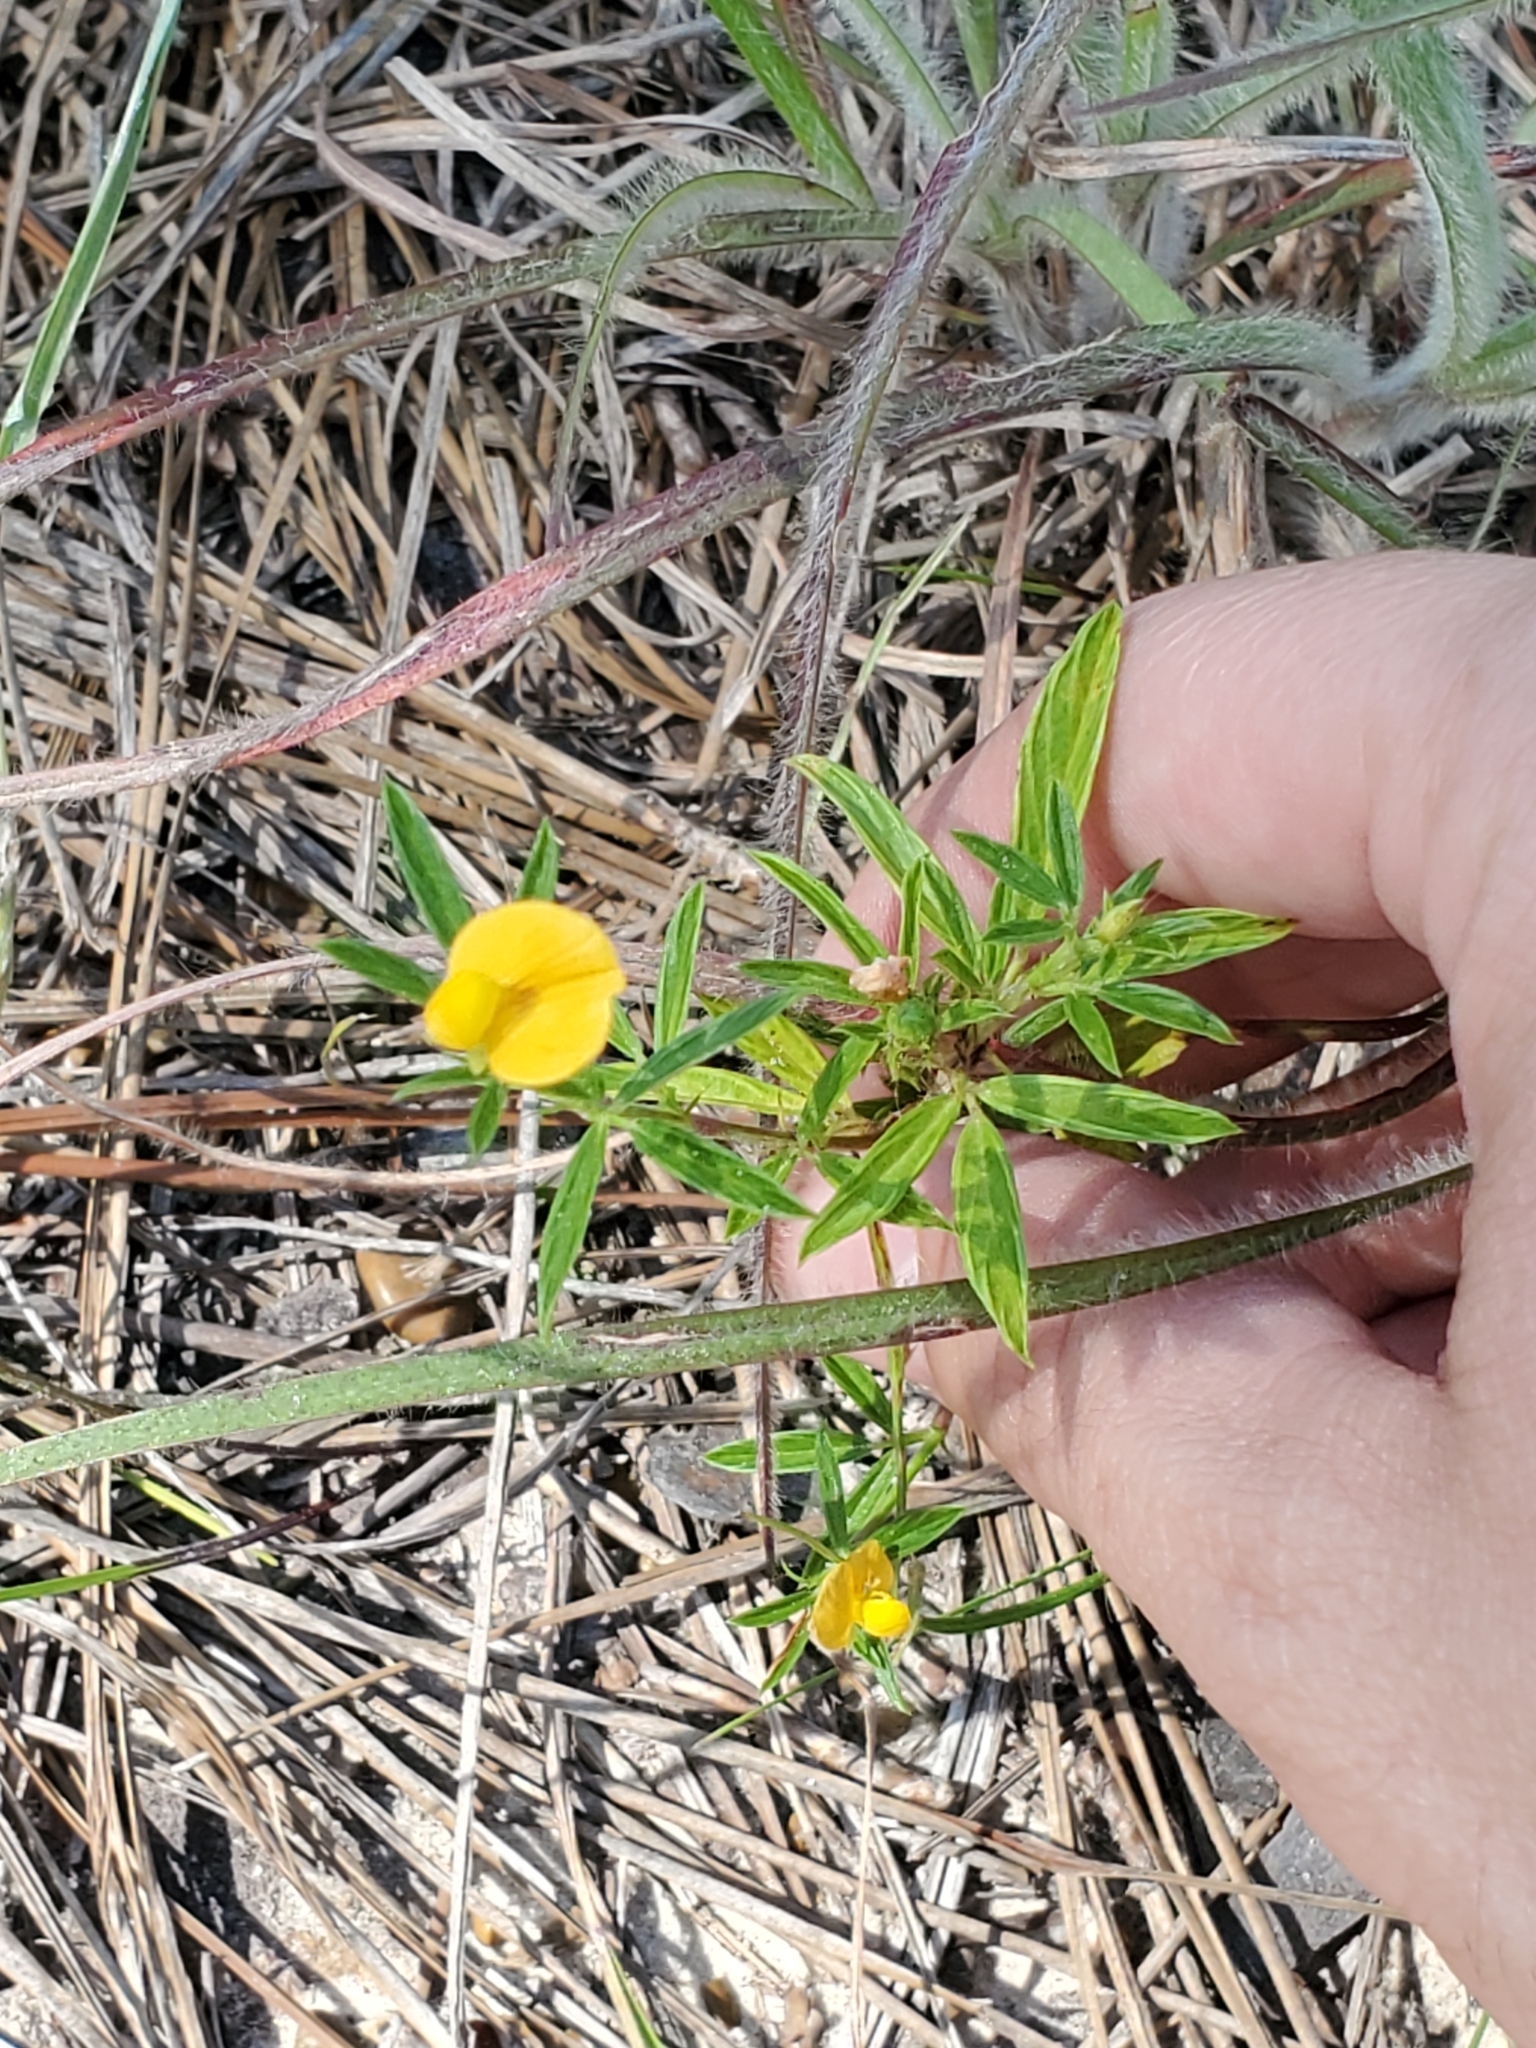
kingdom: Plantae
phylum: Tracheophyta
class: Magnoliopsida
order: Fabales
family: Fabaceae
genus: Stylosanthes
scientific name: Stylosanthes biflora
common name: Two-flower pencil-flower
